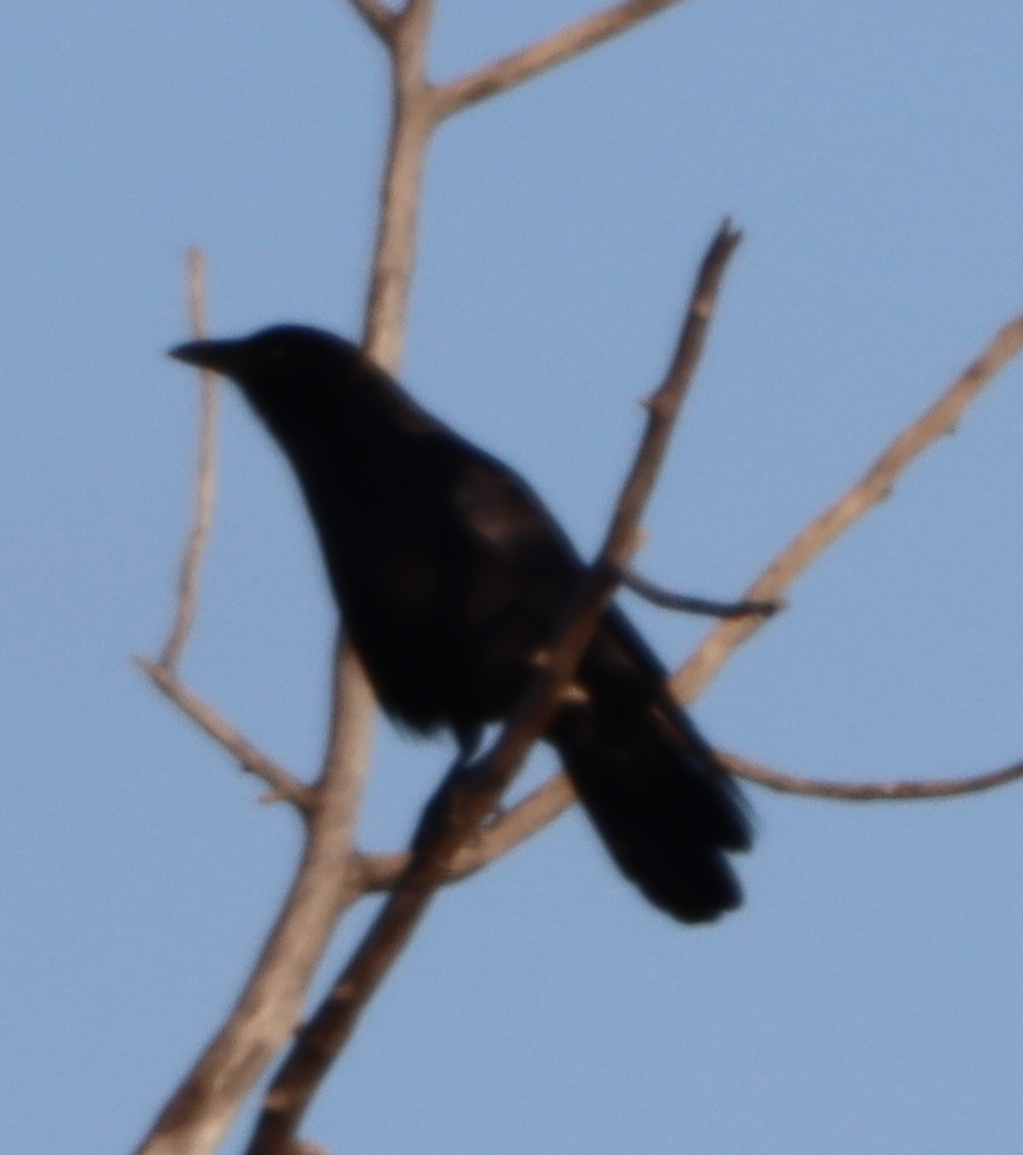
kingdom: Animalia
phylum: Chordata
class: Aves
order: Passeriformes
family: Corvidae
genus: Corvus
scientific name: Corvus brachyrhynchos
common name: American crow
